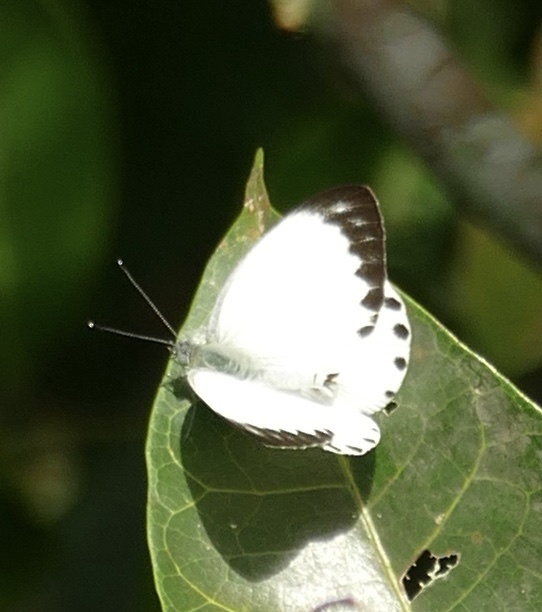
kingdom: Animalia
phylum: Arthropoda
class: Insecta
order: Lepidoptera
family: Pieridae
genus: Appias
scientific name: Appias
